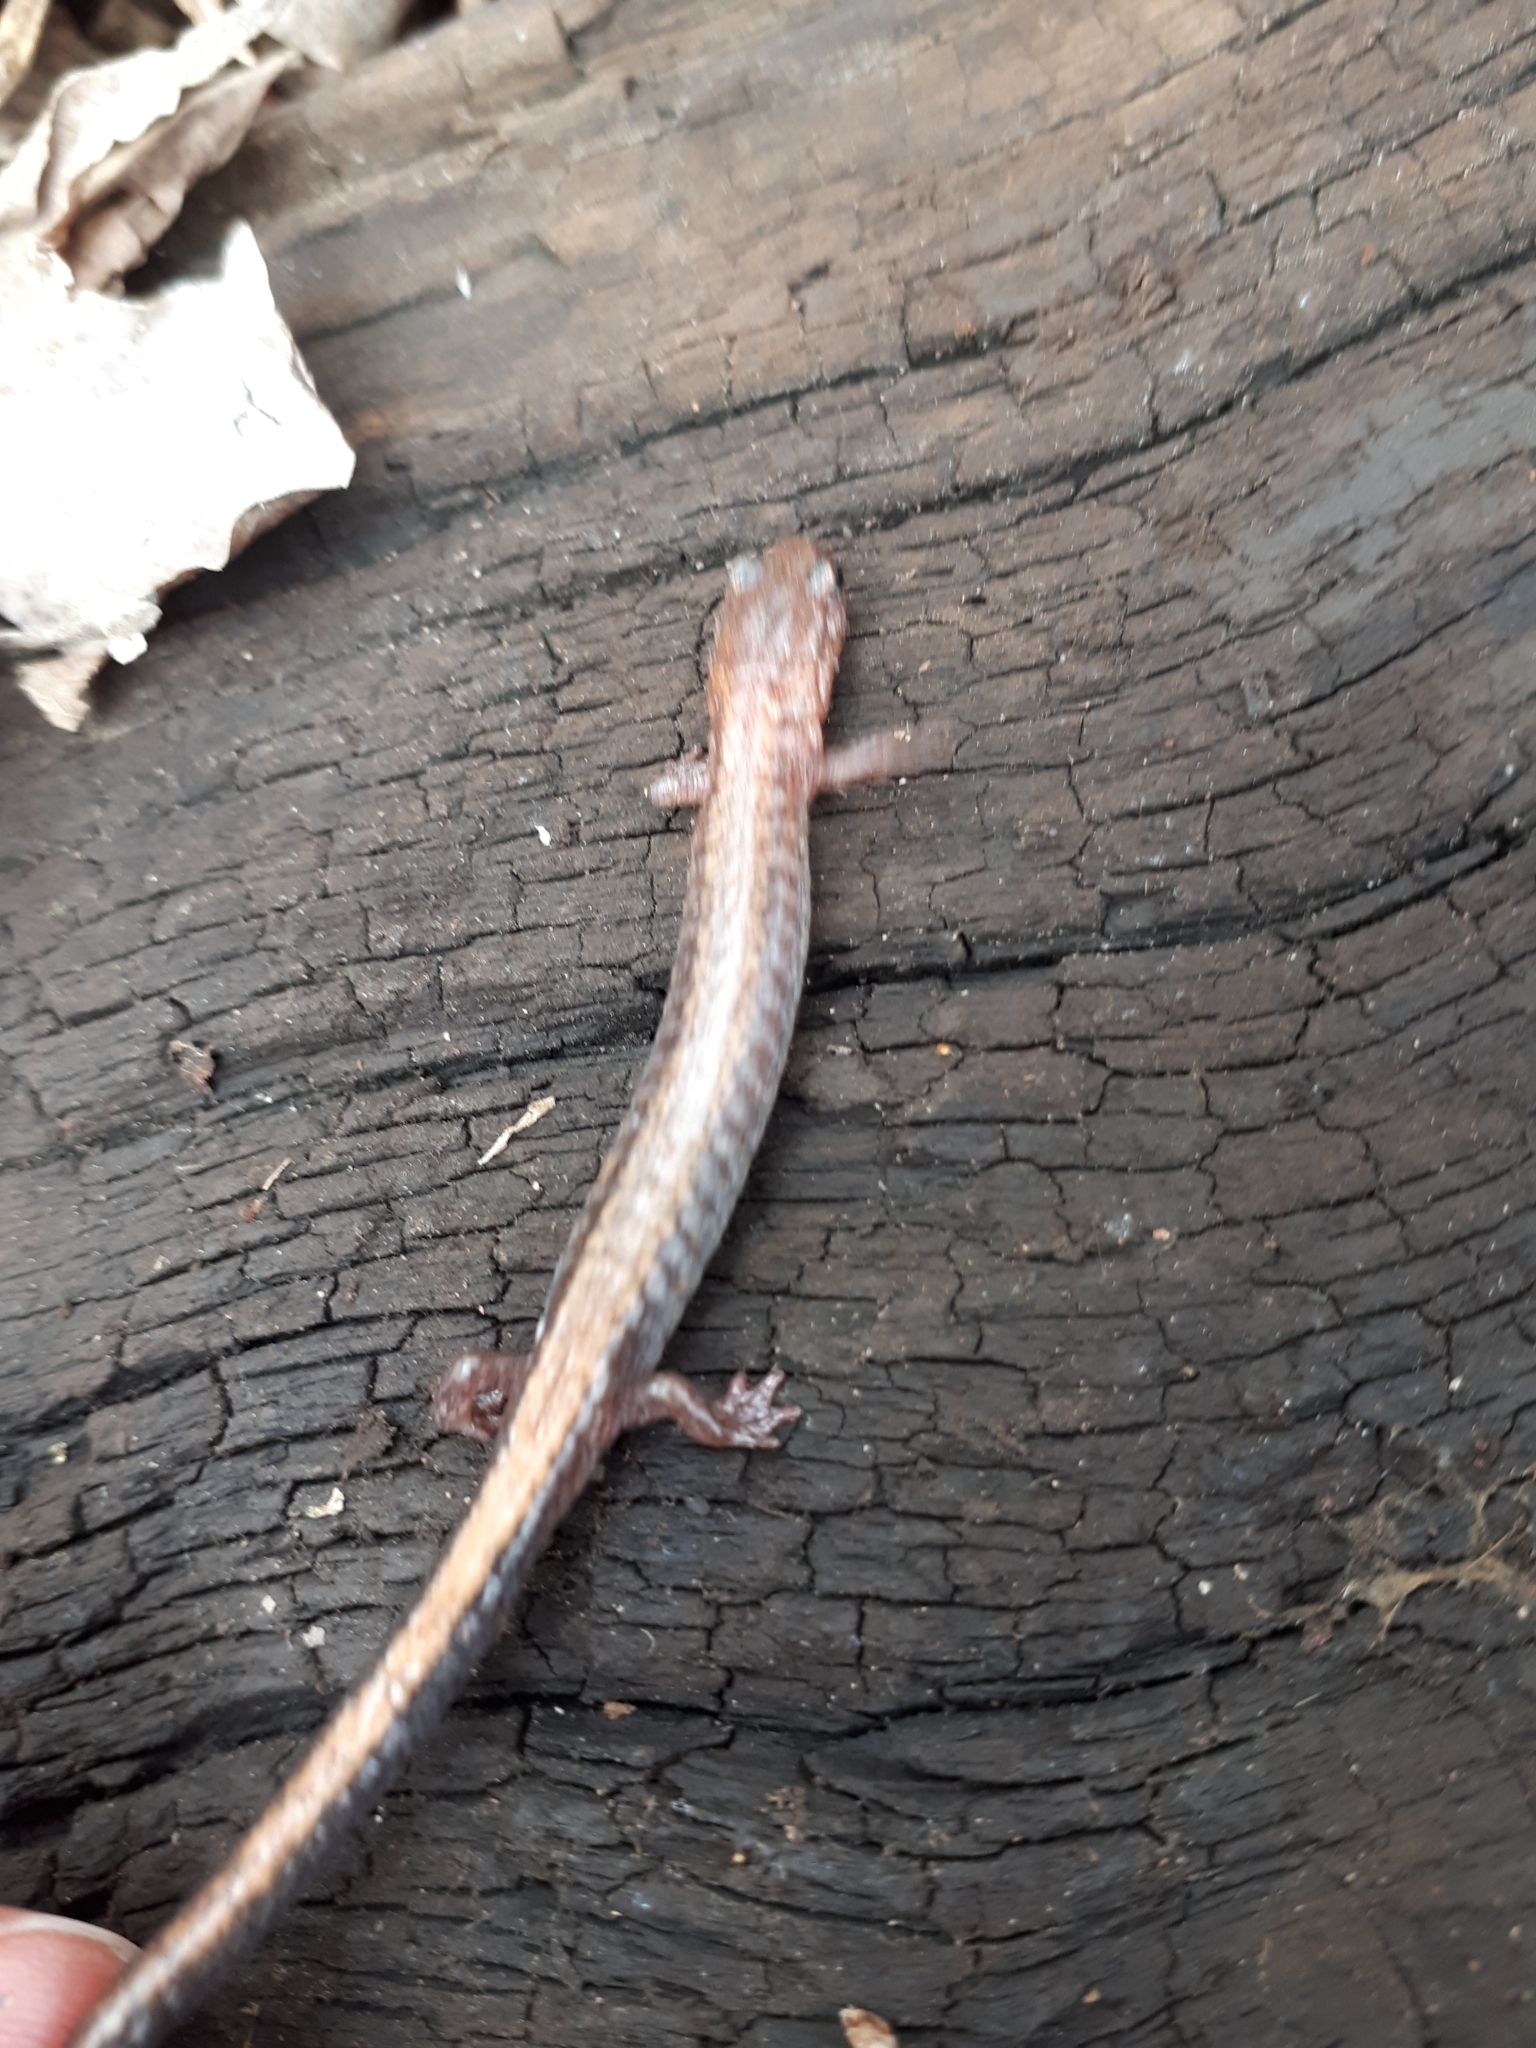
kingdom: Animalia
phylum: Chordata
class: Amphibia
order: Caudata
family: Plethodontidae
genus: Plethodon
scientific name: Plethodon cinereus
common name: Redback salamander
